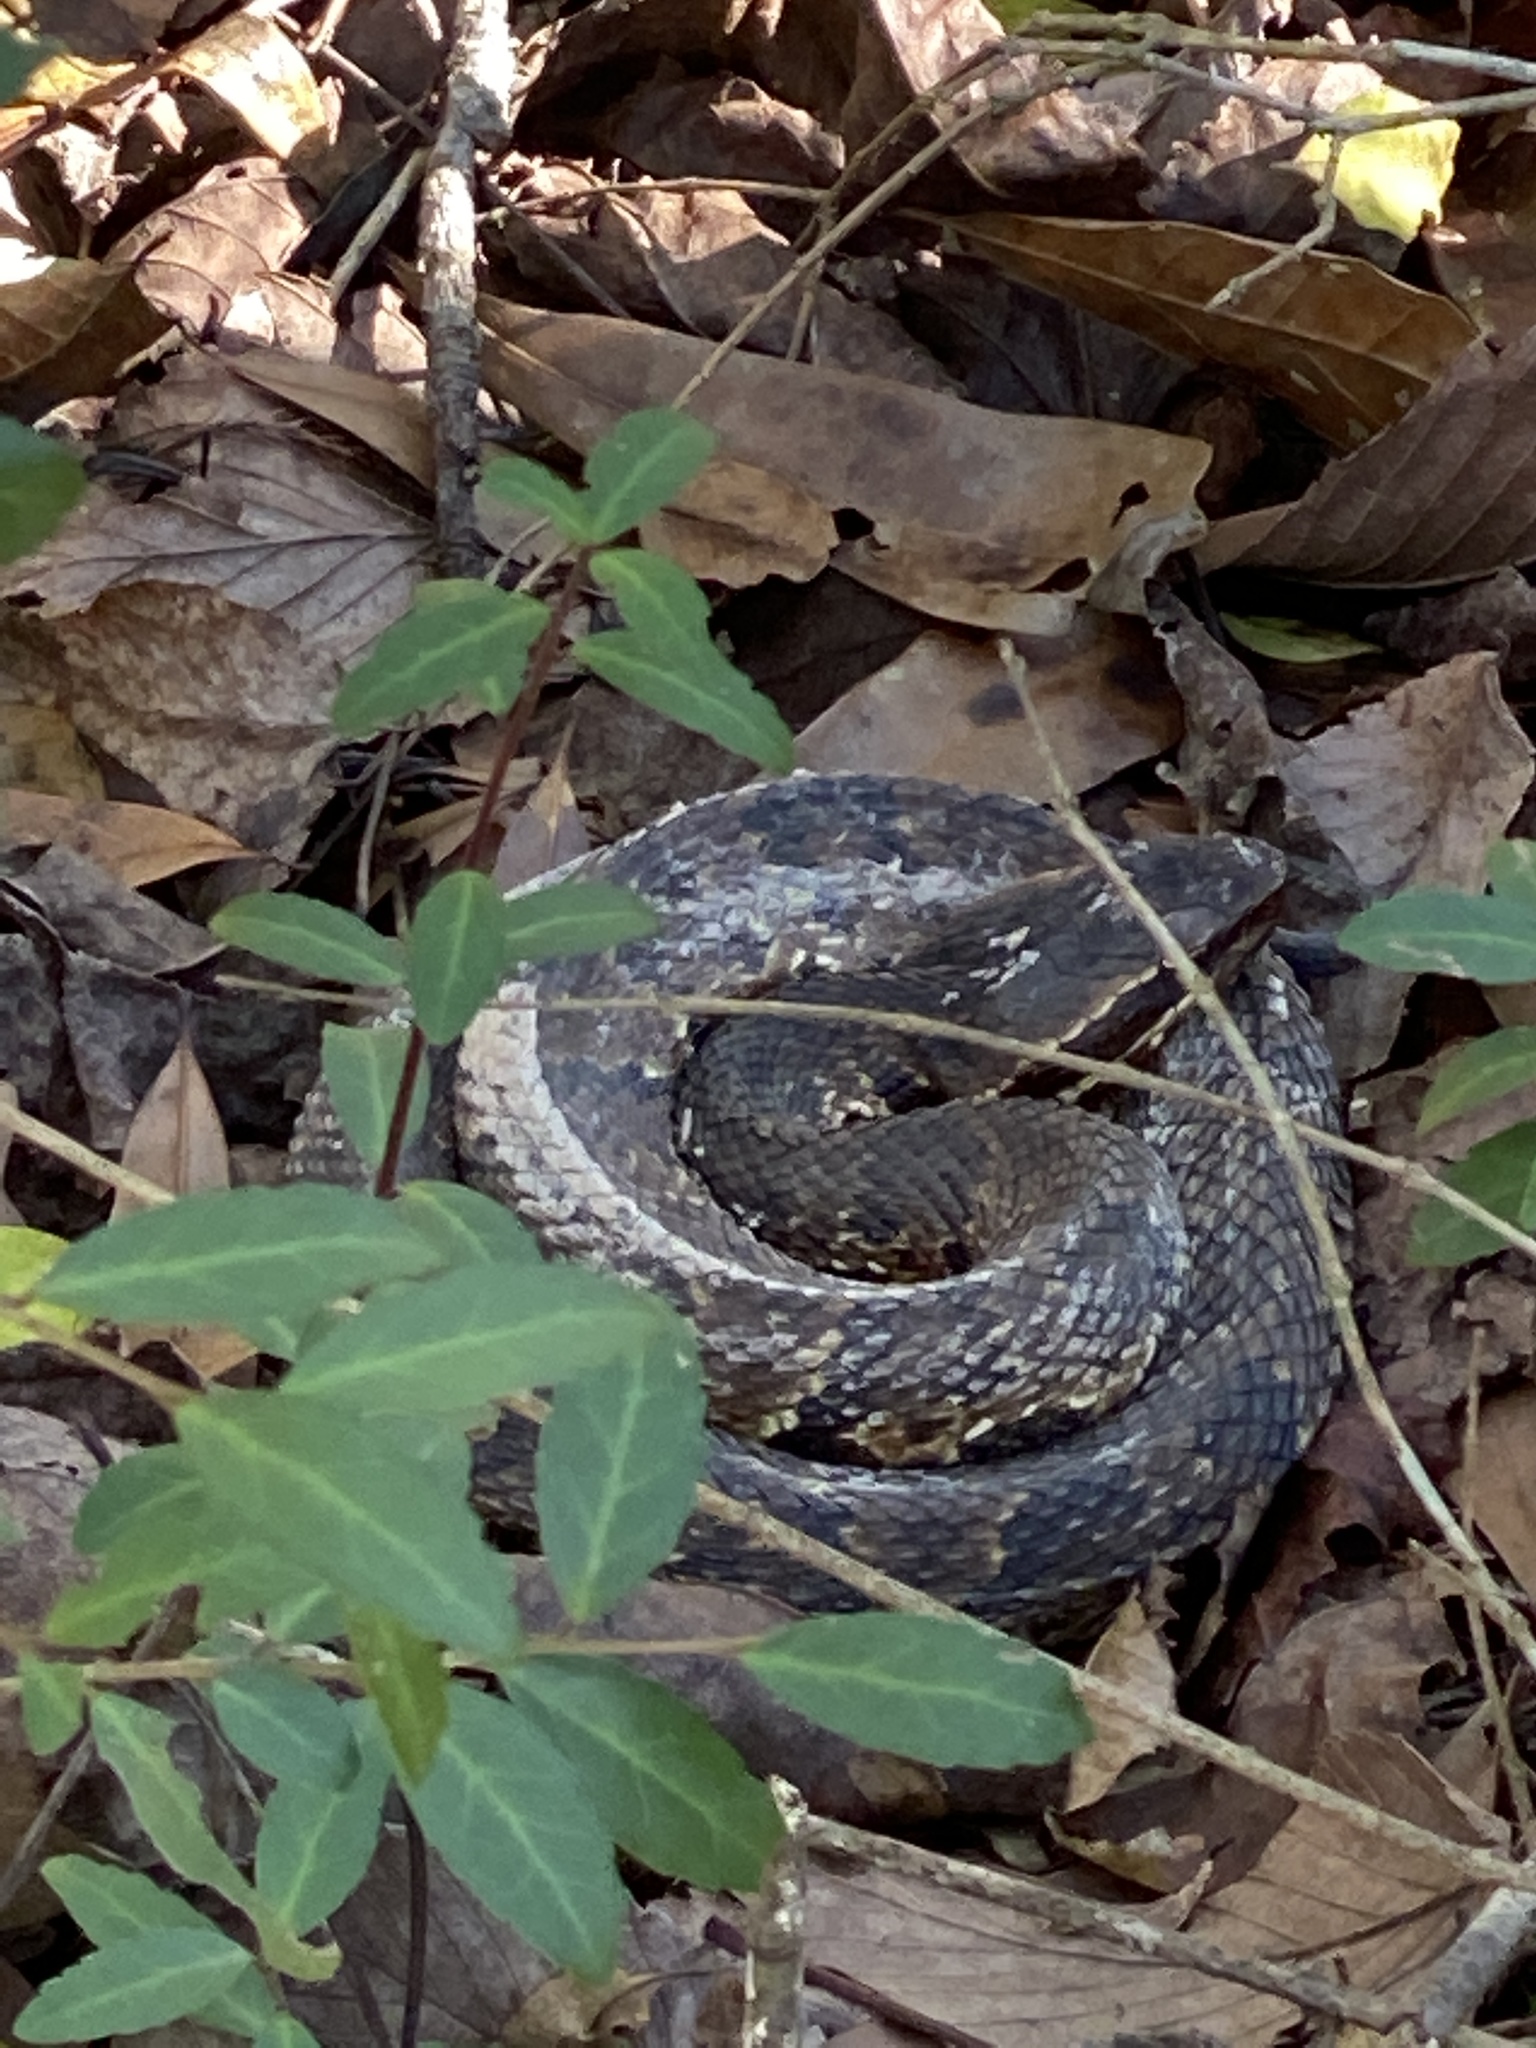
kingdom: Animalia
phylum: Chordata
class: Squamata
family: Viperidae
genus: Agkistrodon
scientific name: Agkistrodon piscivorus
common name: Cottonmouth
